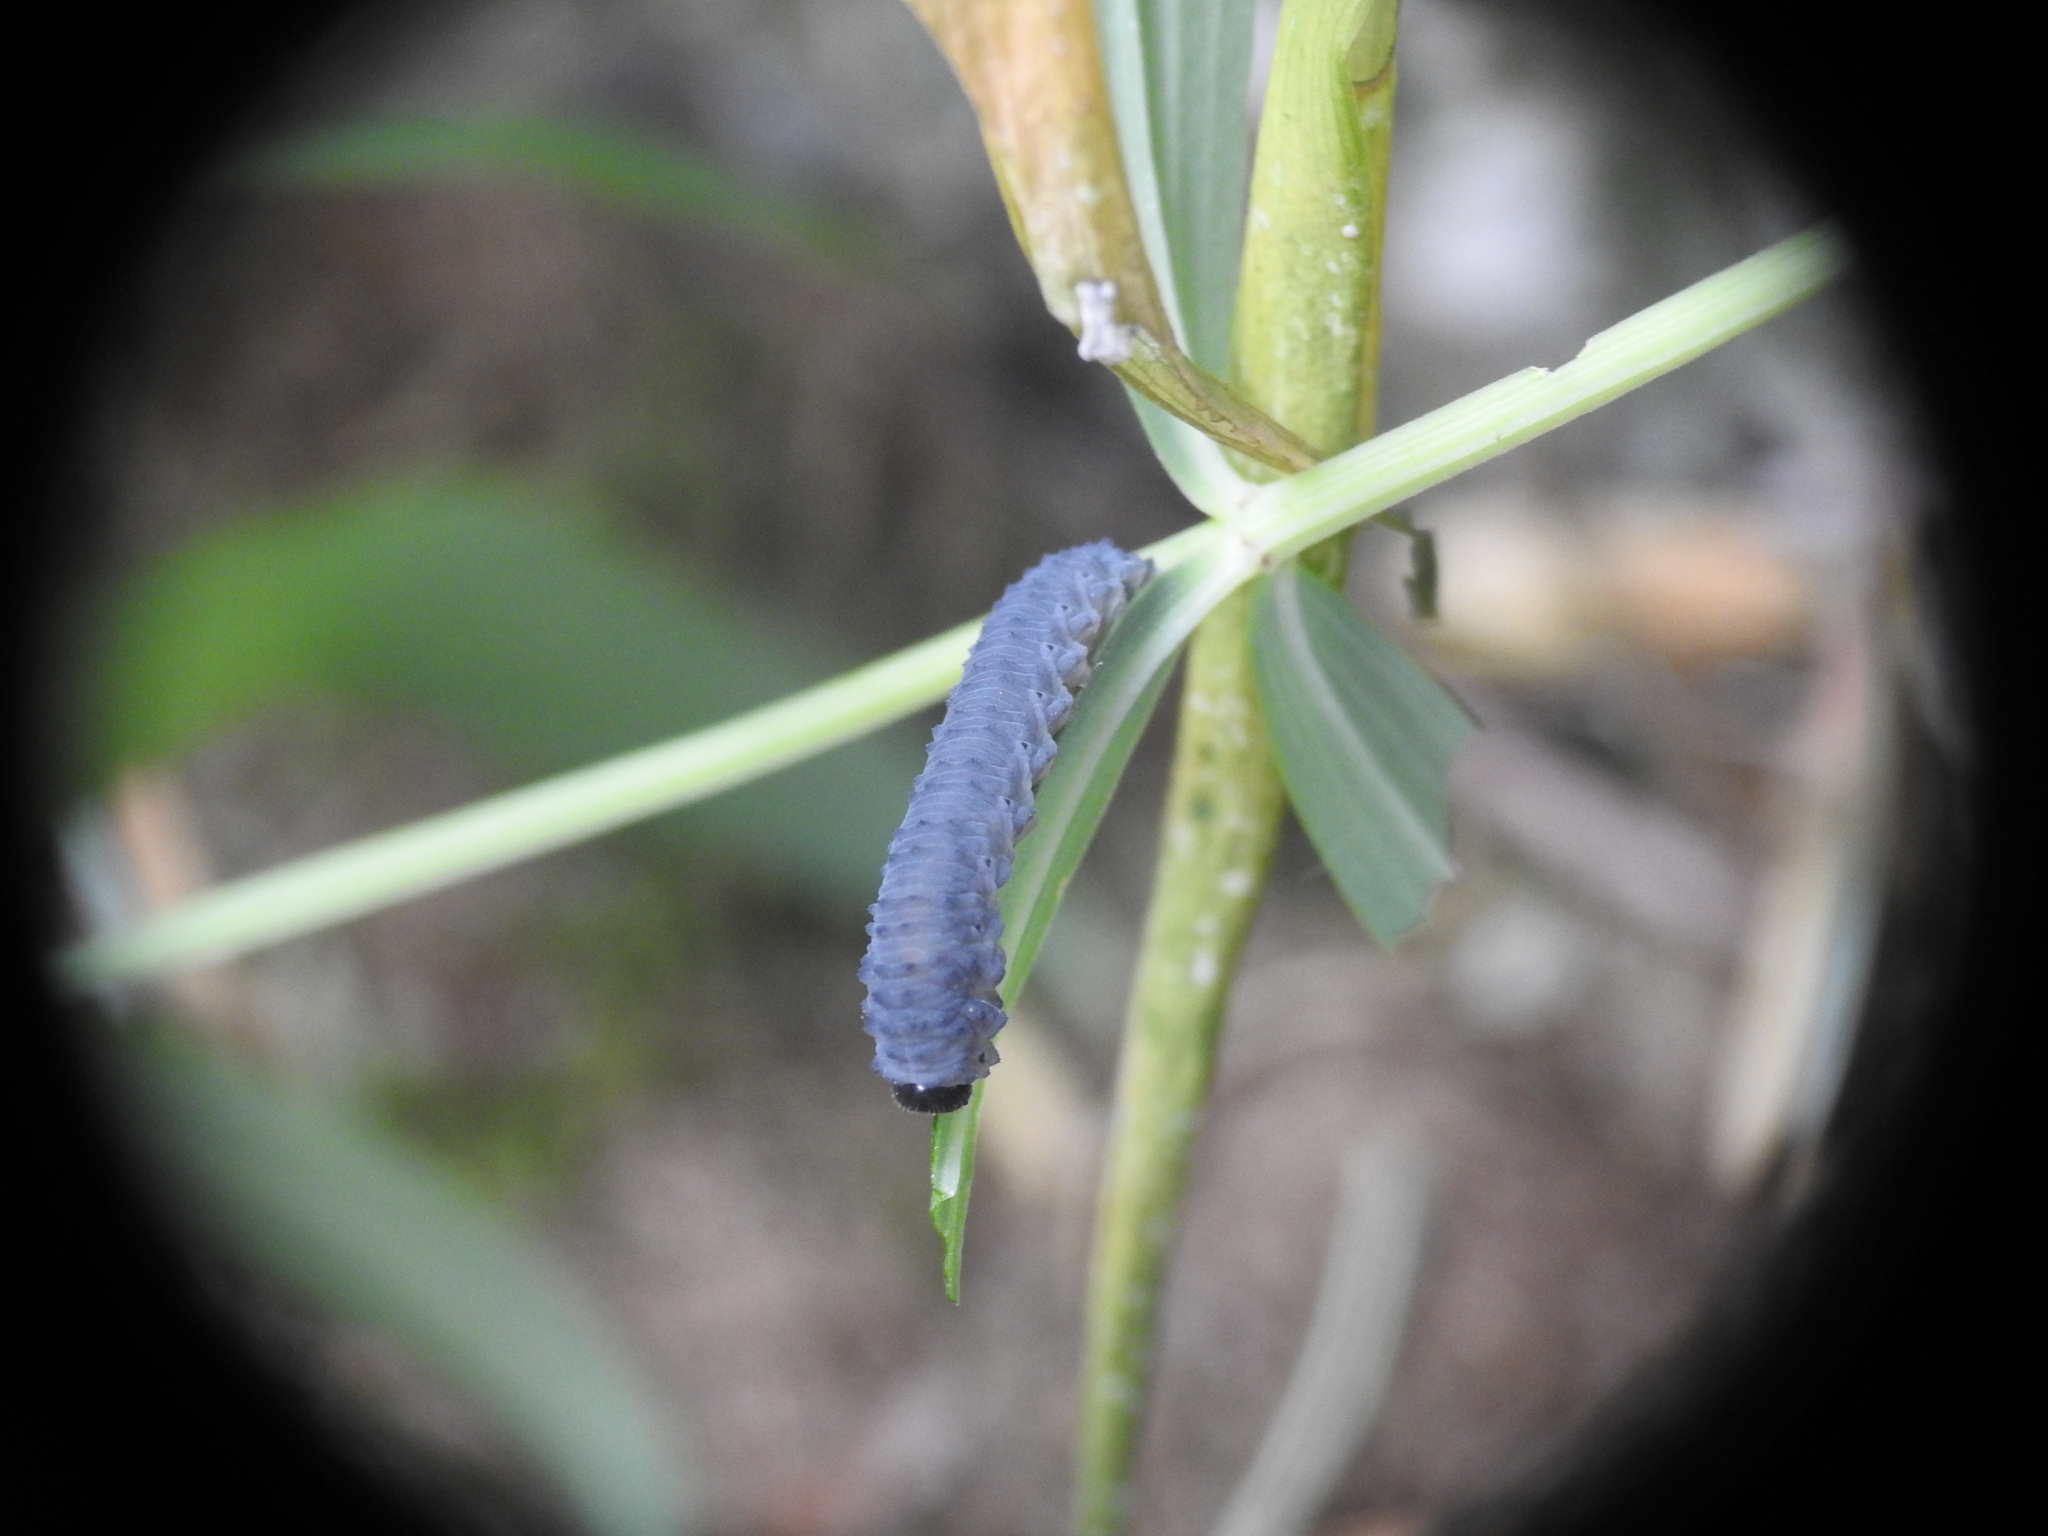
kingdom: Animalia
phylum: Arthropoda
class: Insecta
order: Hymenoptera
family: Tenthredinidae
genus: Phymatocera
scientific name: Phymatocera aterrima
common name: Solomon's-seal sawfly
